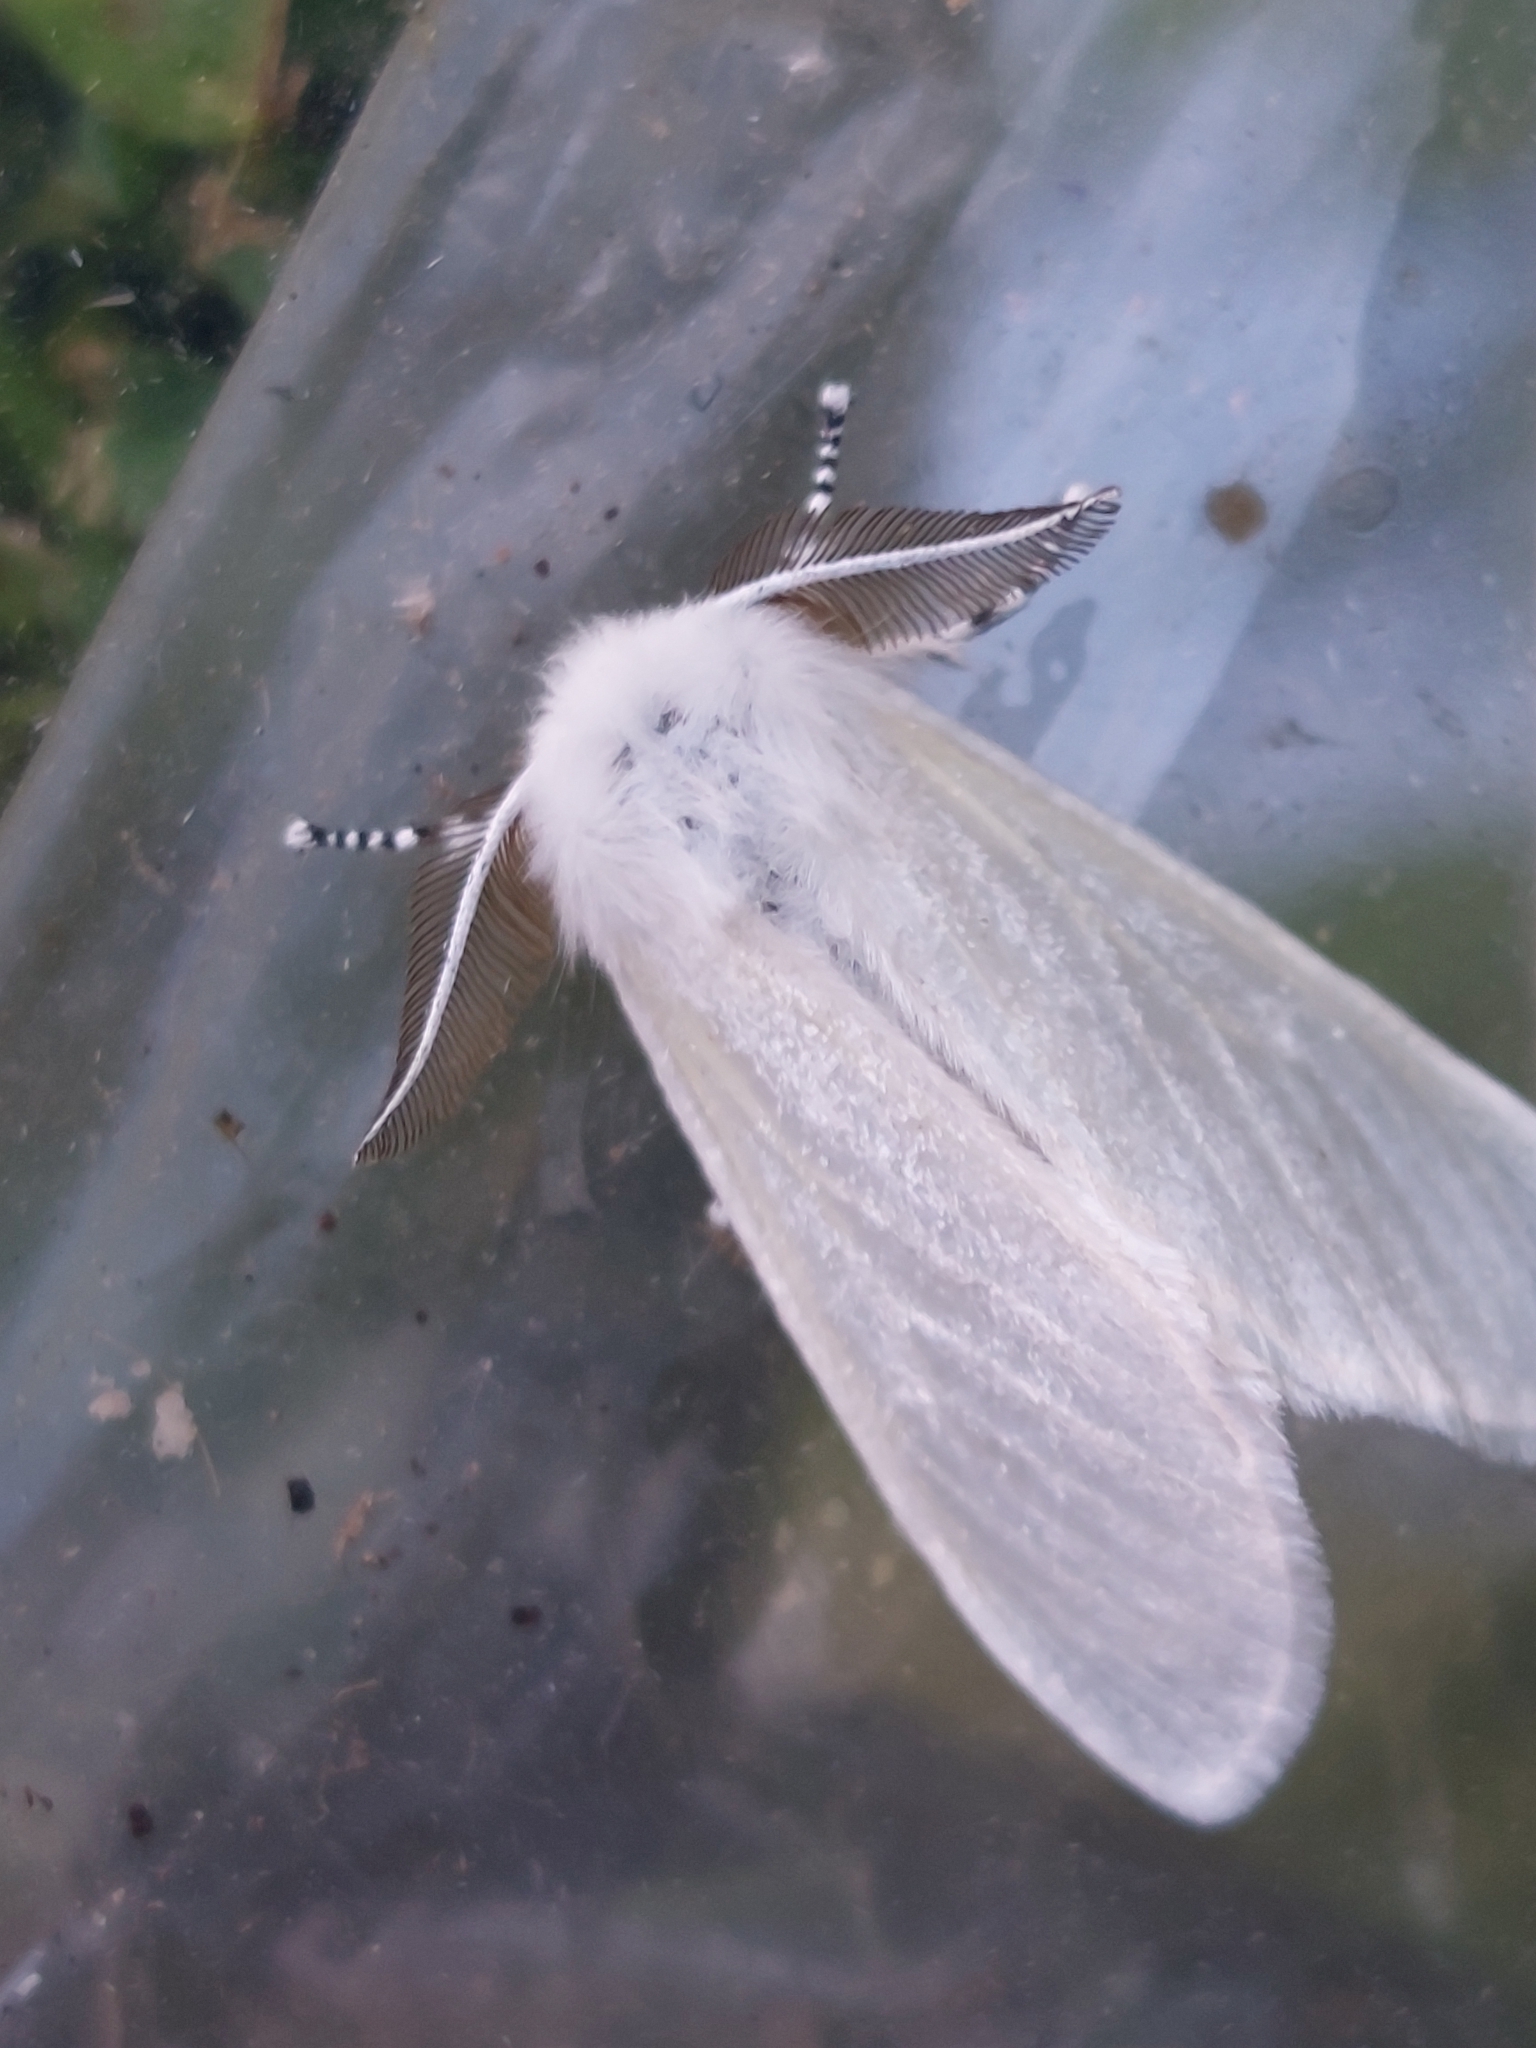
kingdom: Animalia
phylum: Arthropoda
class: Insecta
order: Lepidoptera
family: Erebidae
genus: Leucoma
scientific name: Leucoma salicis
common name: White satin moth
